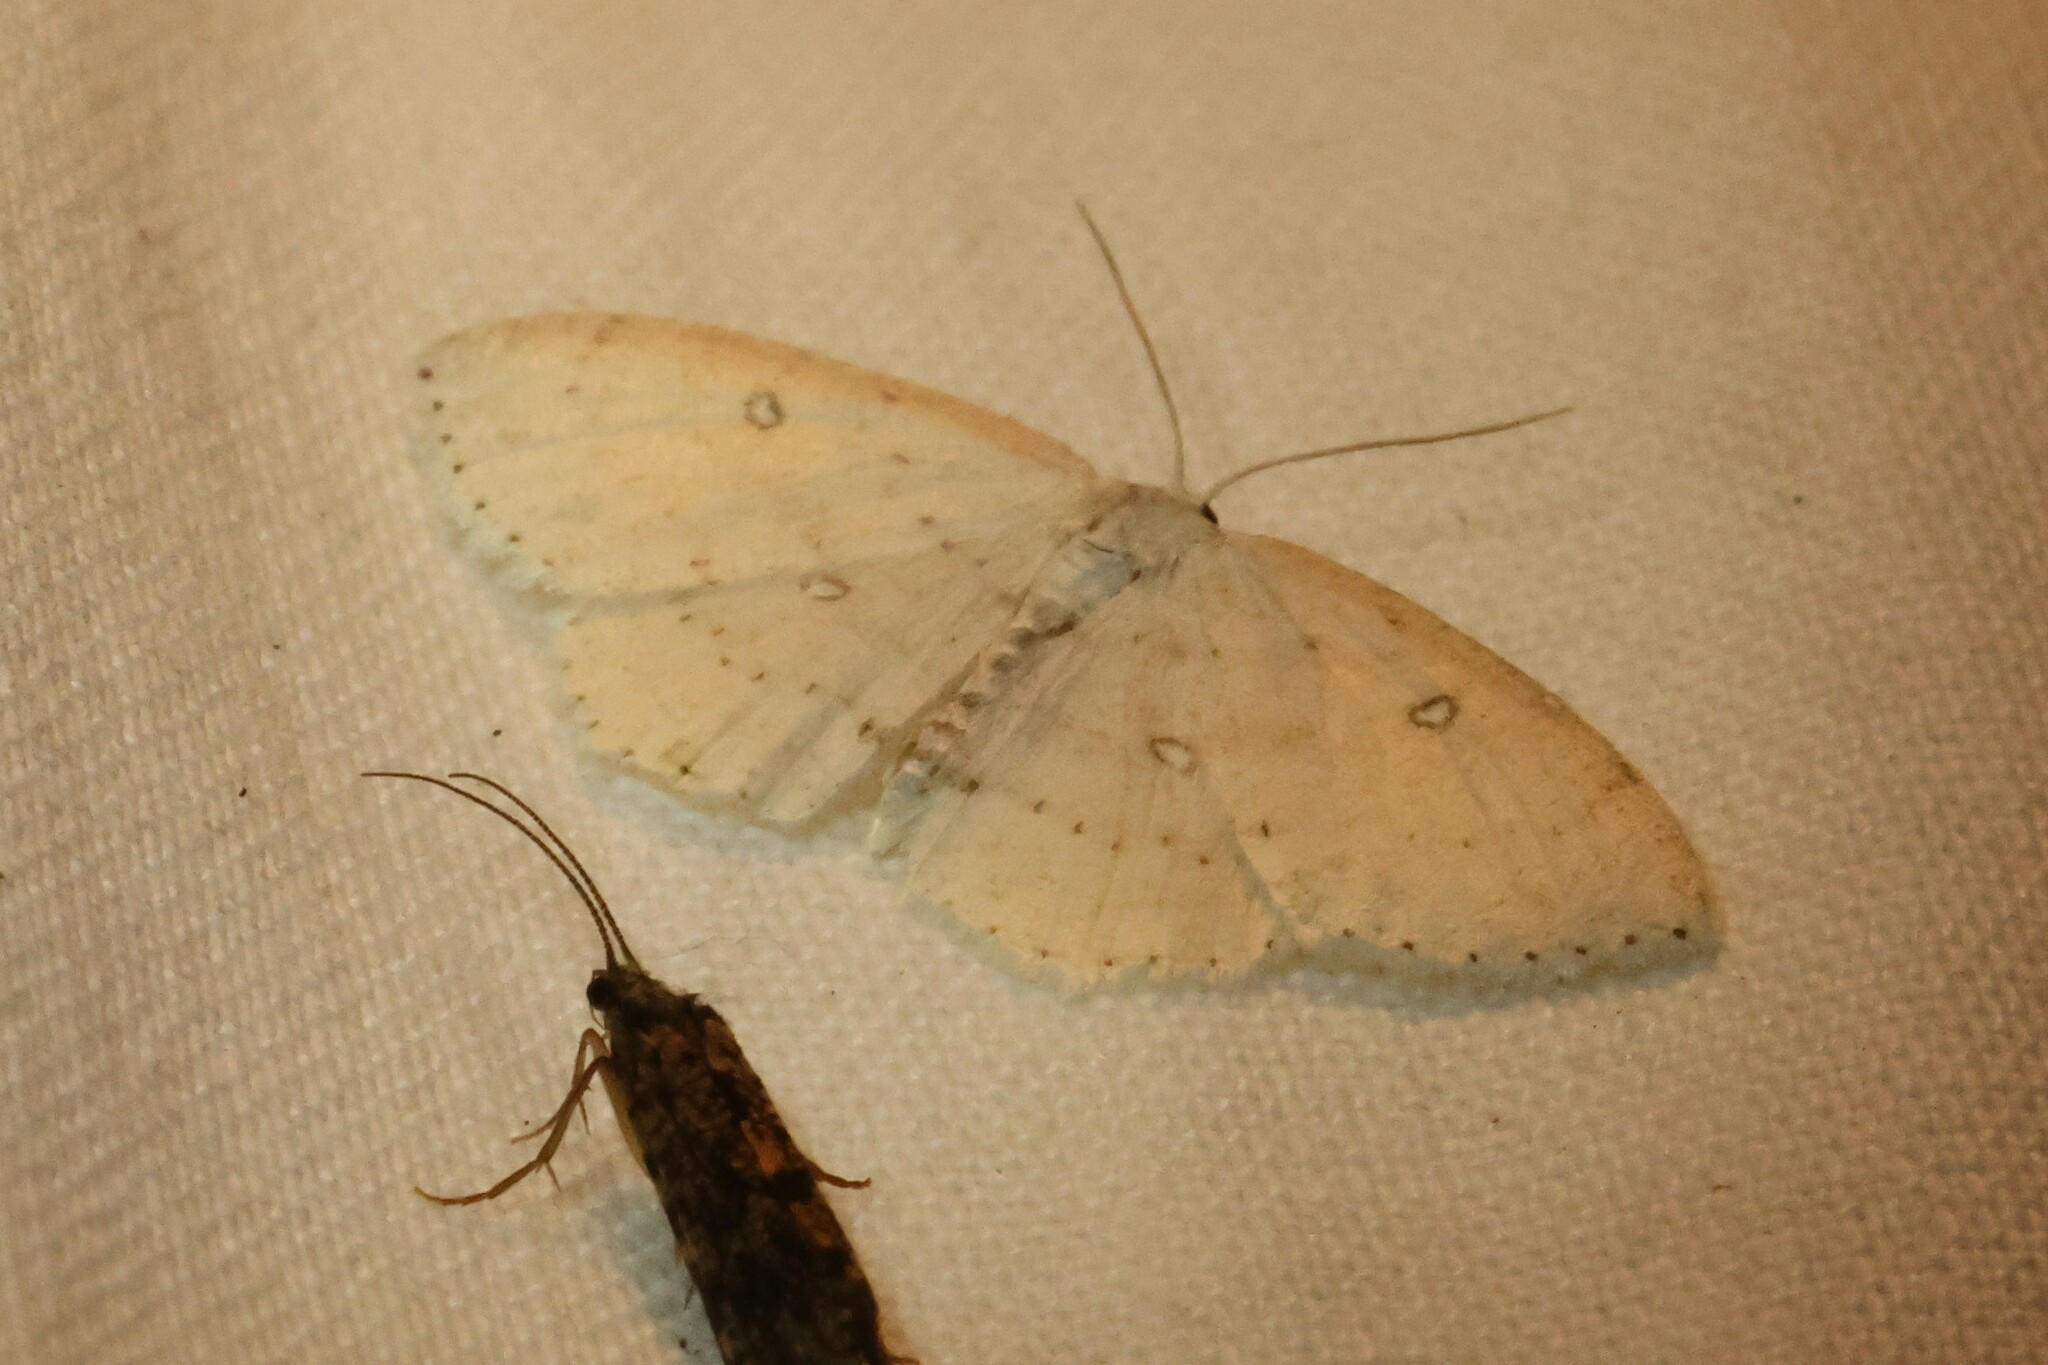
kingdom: Animalia
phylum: Arthropoda
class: Insecta
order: Lepidoptera
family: Geometridae
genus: Cyclophora
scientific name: Cyclophora pendulinaria
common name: Sweet fern geometer
